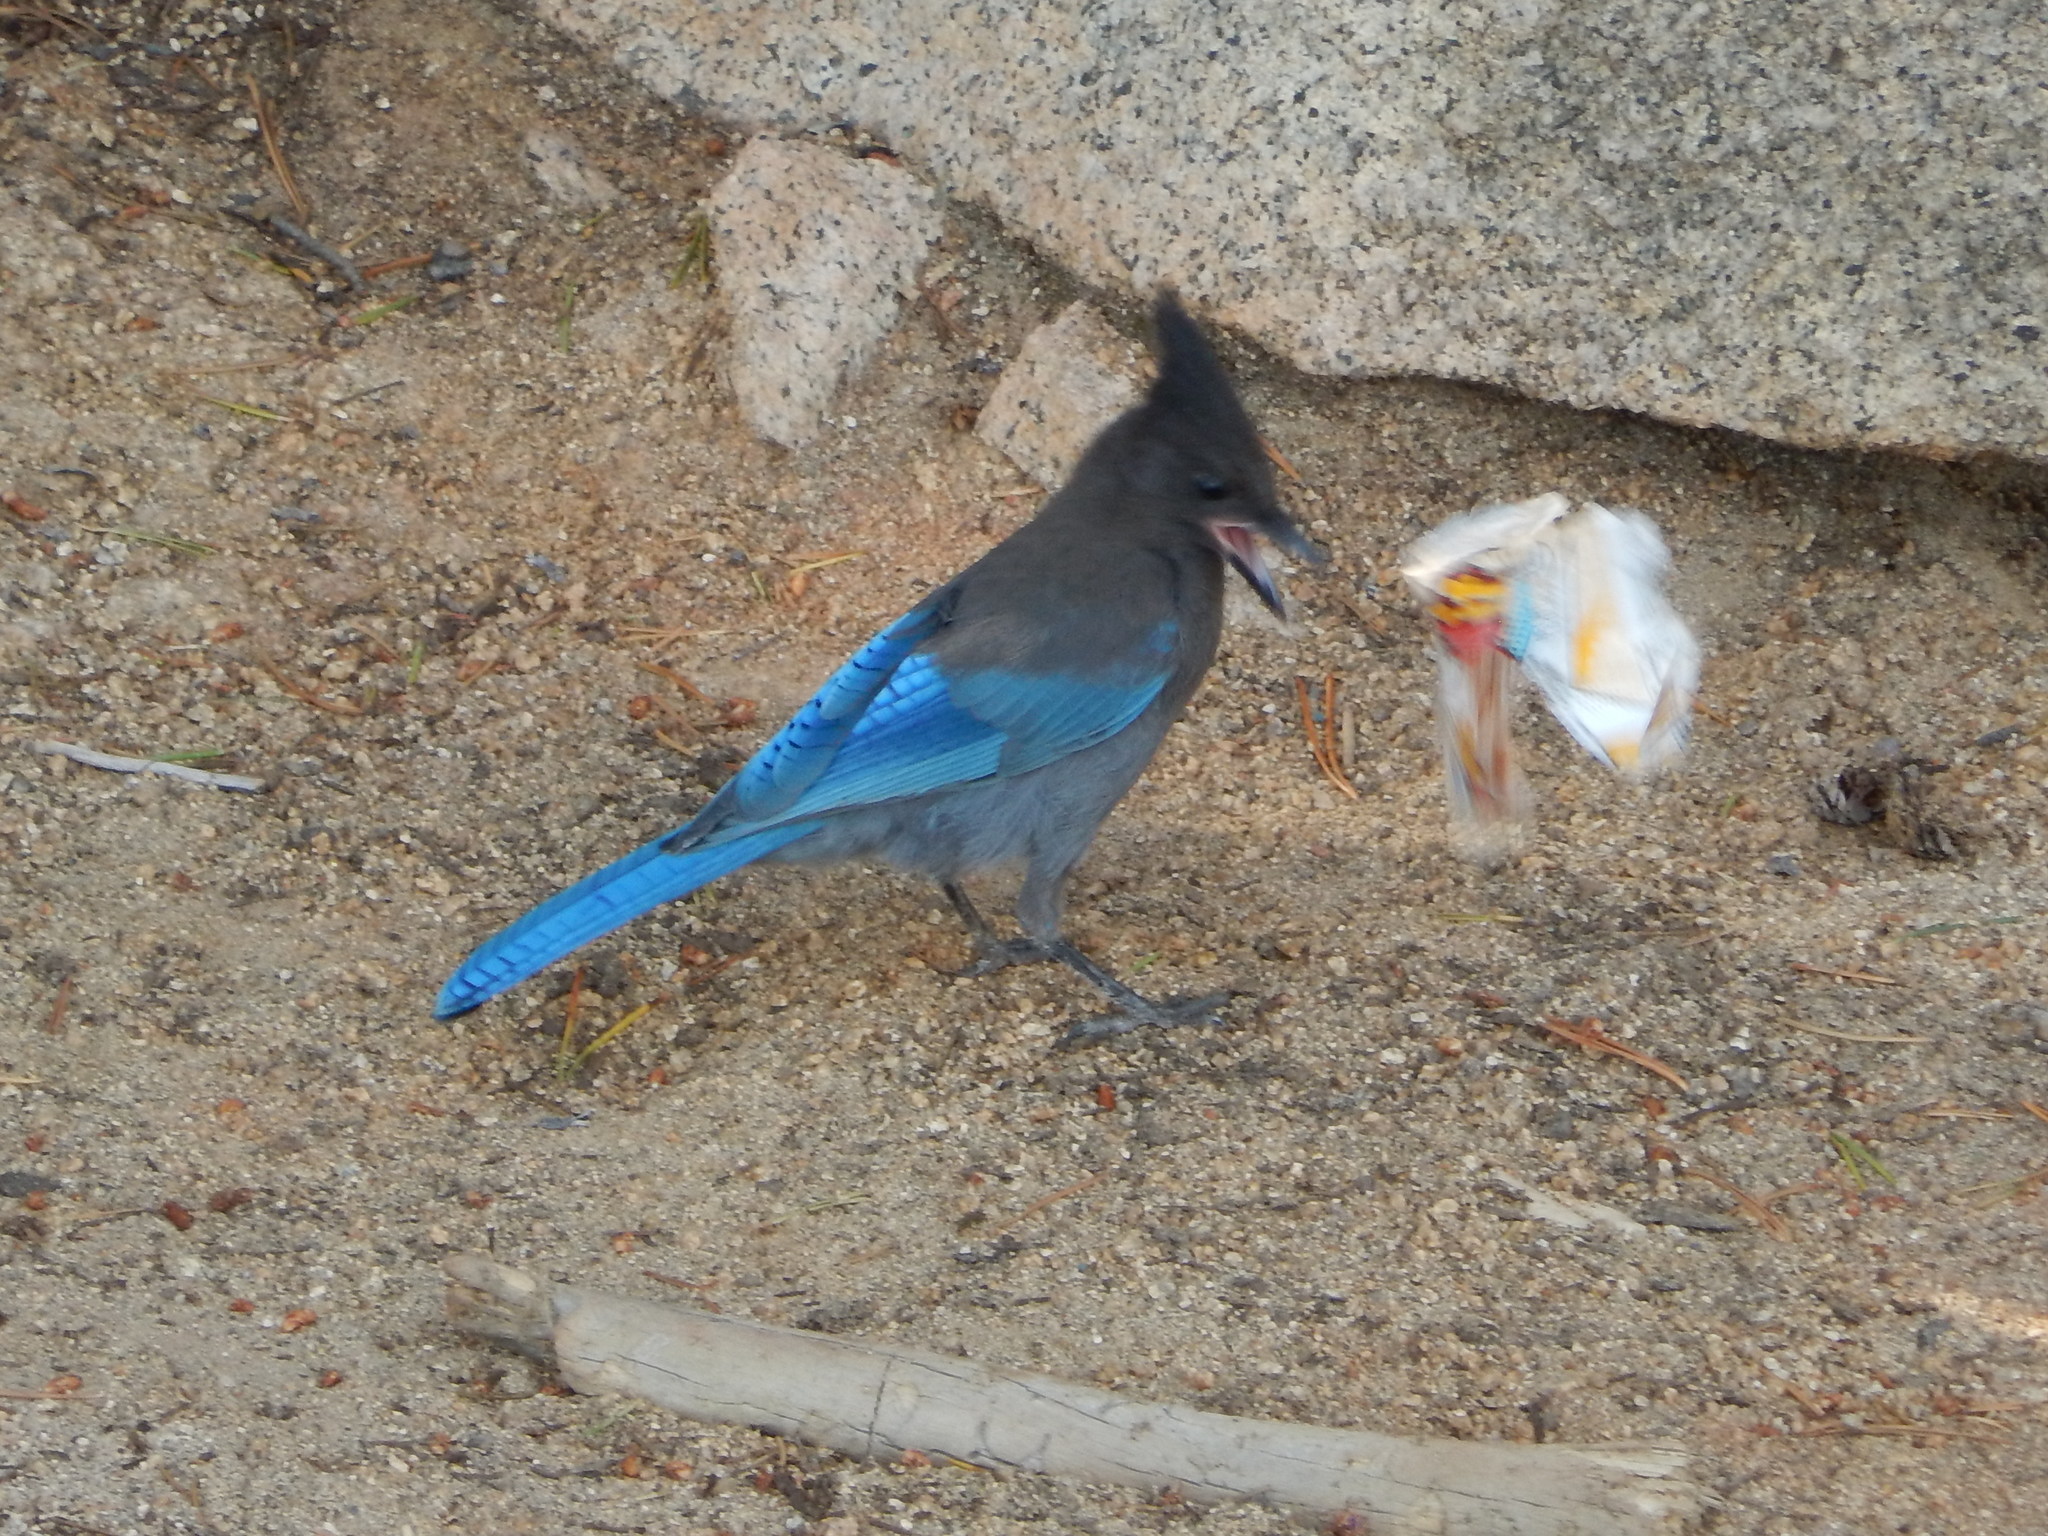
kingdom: Animalia
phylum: Chordata
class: Aves
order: Passeriformes
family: Corvidae
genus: Cyanocitta
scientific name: Cyanocitta stelleri
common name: Steller's jay
